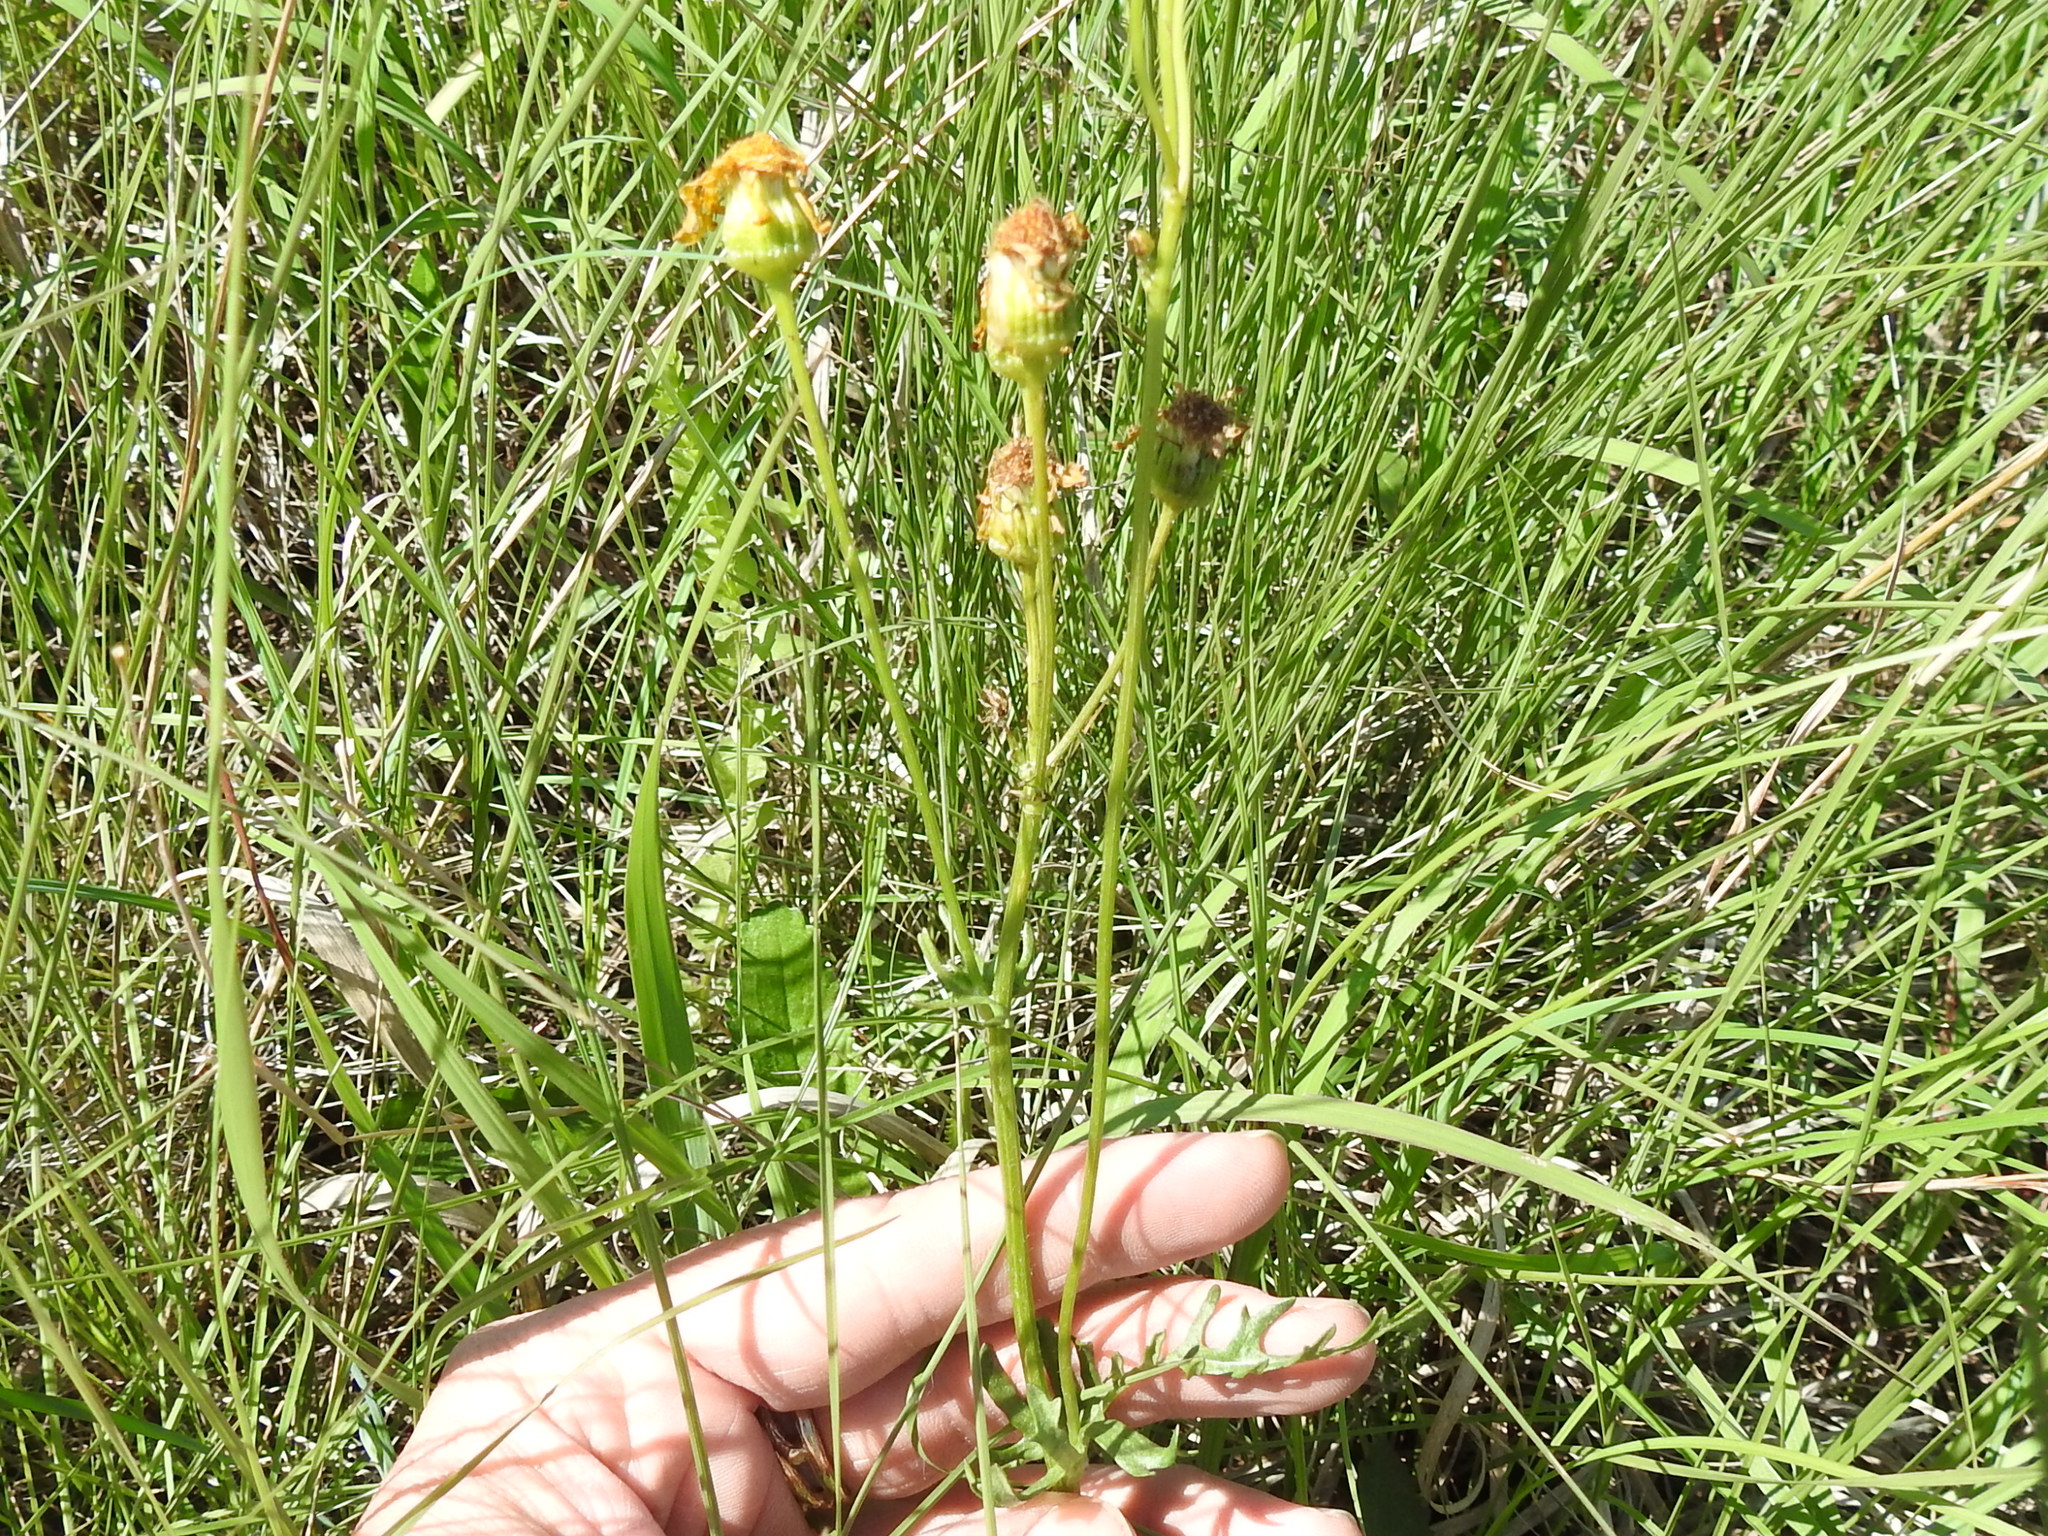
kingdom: Plantae
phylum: Tracheophyta
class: Magnoliopsida
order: Asterales
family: Asteraceae
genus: Packera
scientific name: Packera obovata
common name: Round-leaf ragwort
